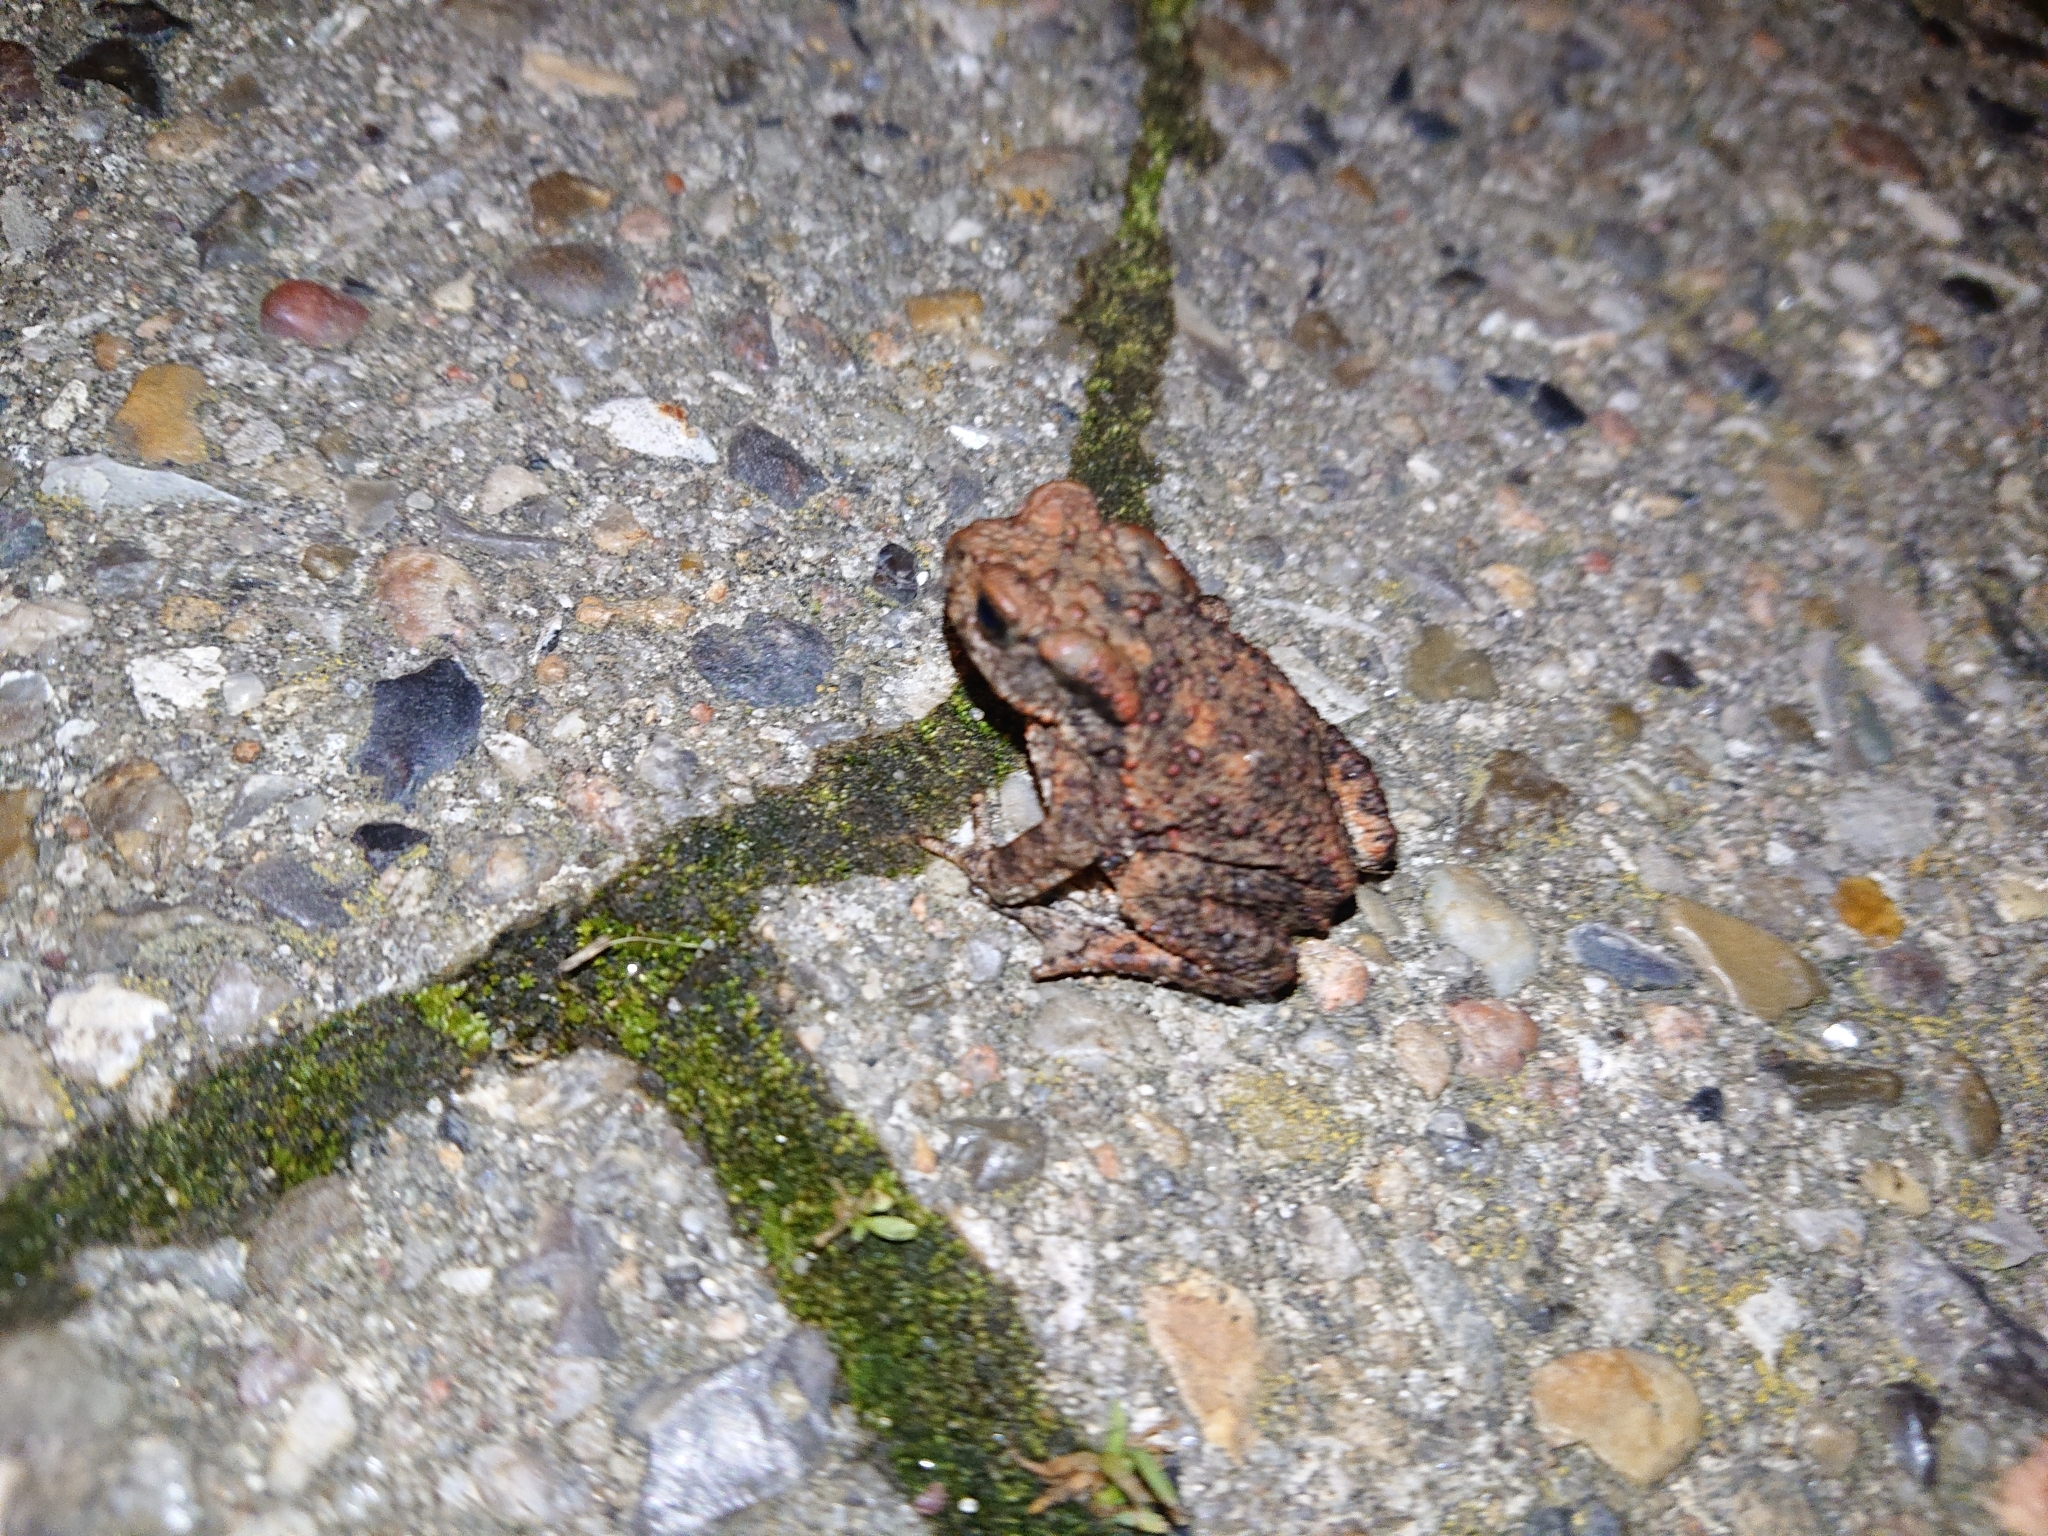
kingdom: Animalia
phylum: Chordata
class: Amphibia
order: Anura
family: Bufonidae
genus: Bufo
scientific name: Bufo bufo
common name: Common toad
